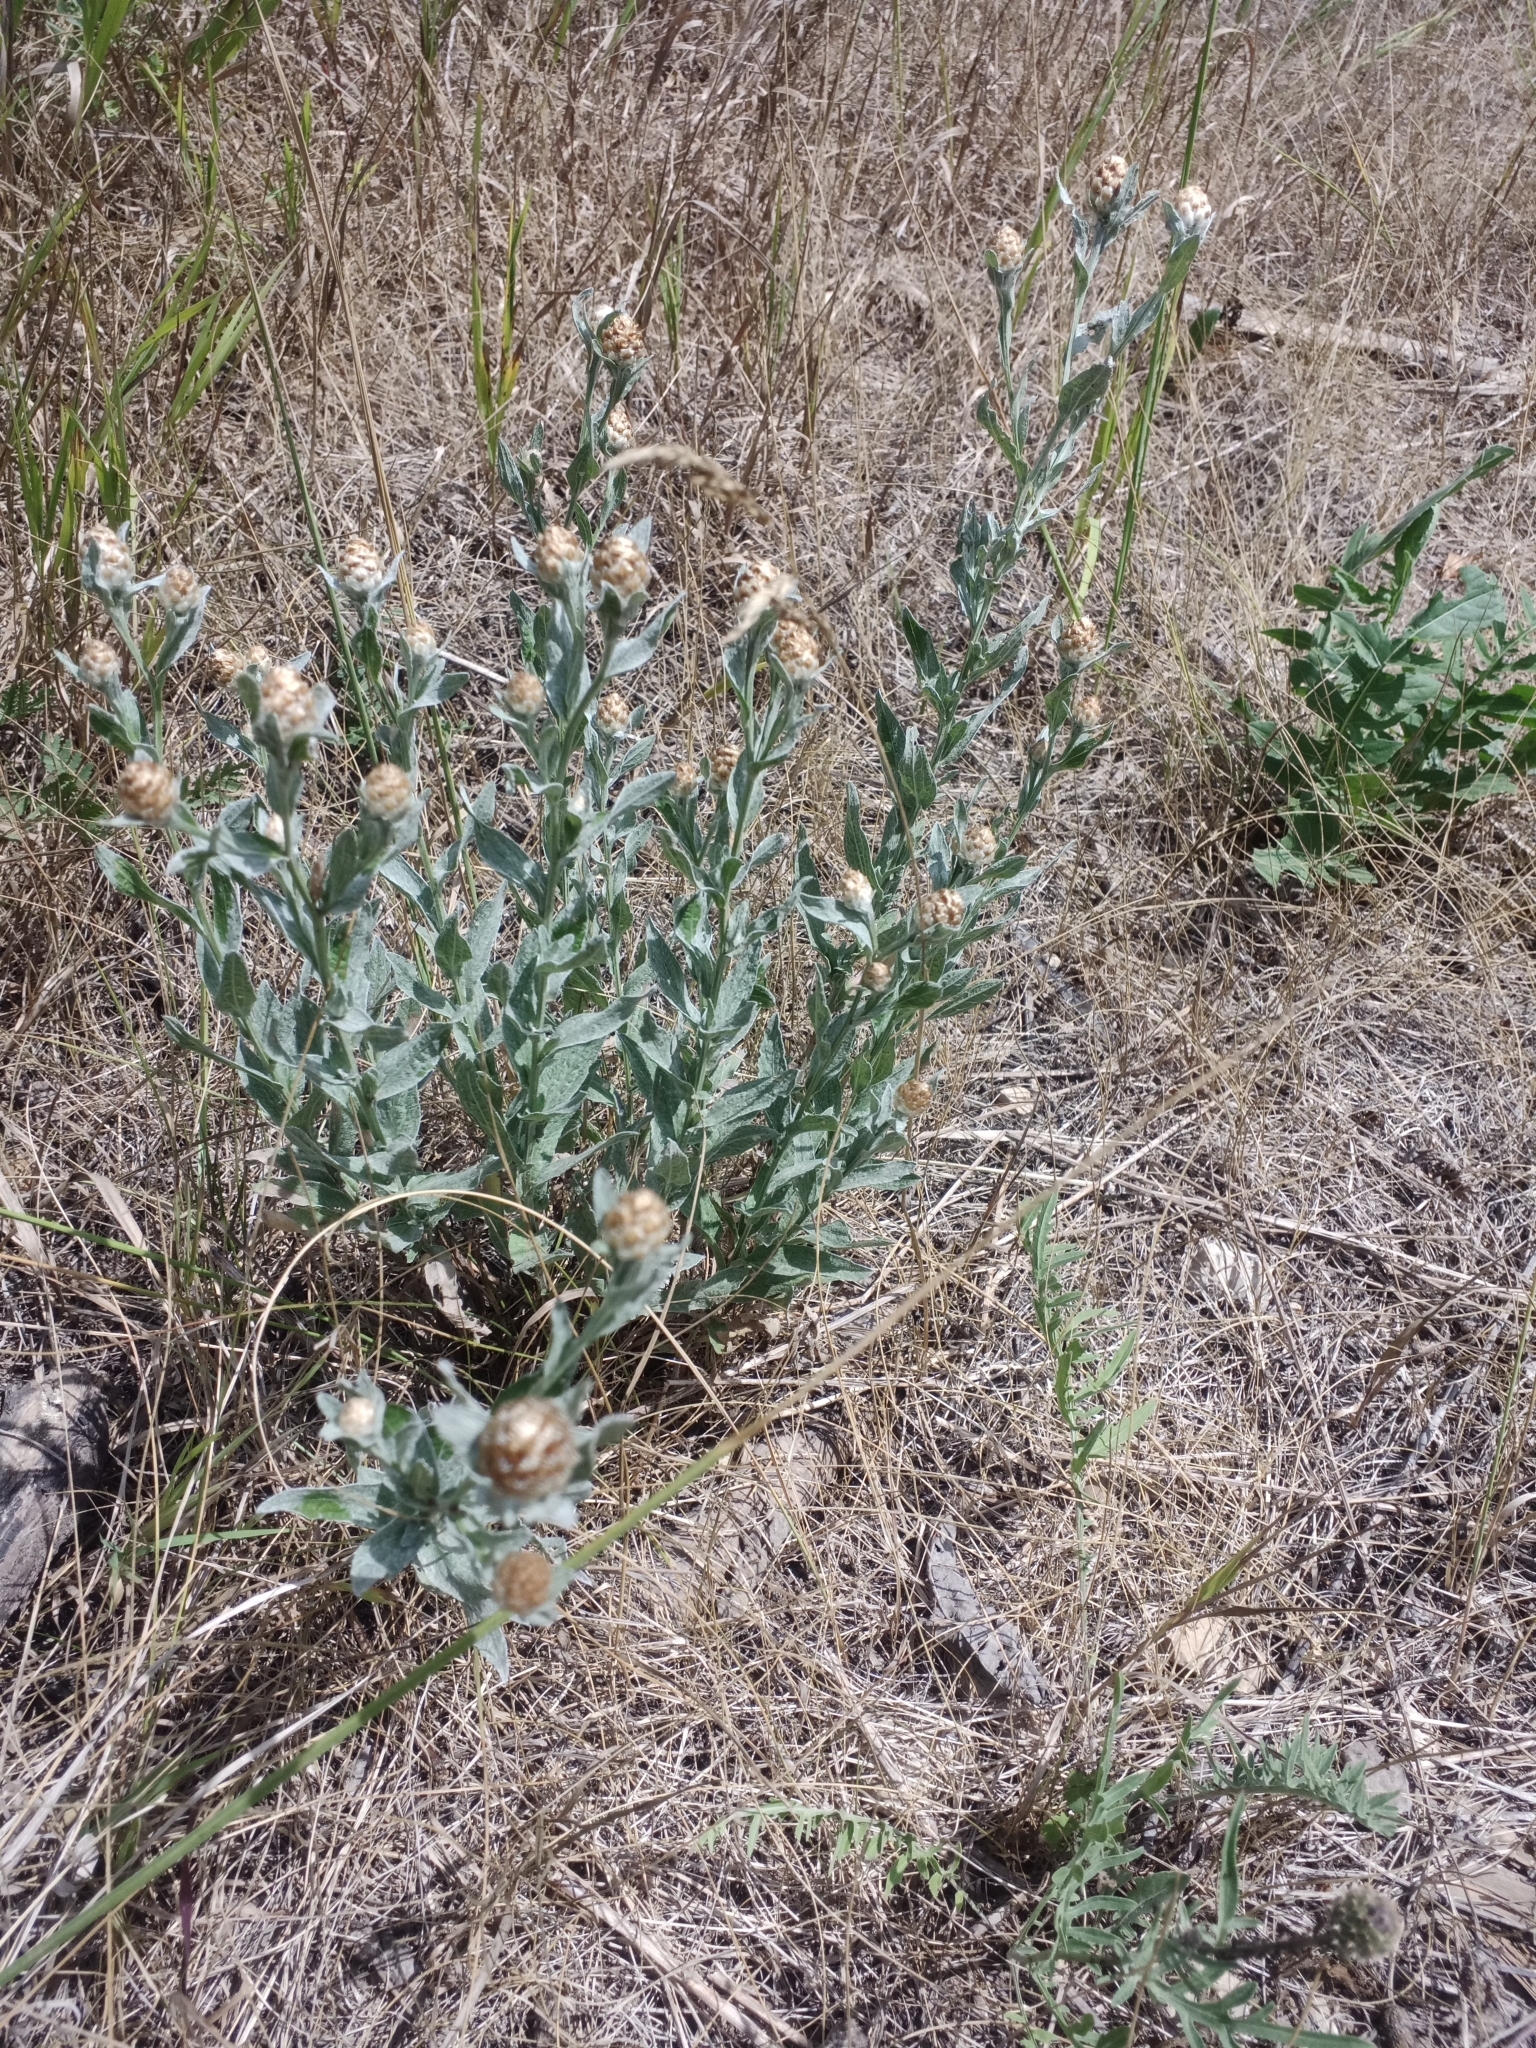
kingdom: Plantae
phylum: Tracheophyta
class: Magnoliopsida
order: Asterales
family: Asteraceae
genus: Centaurea
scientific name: Centaurea jacea
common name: Brown knapweed
